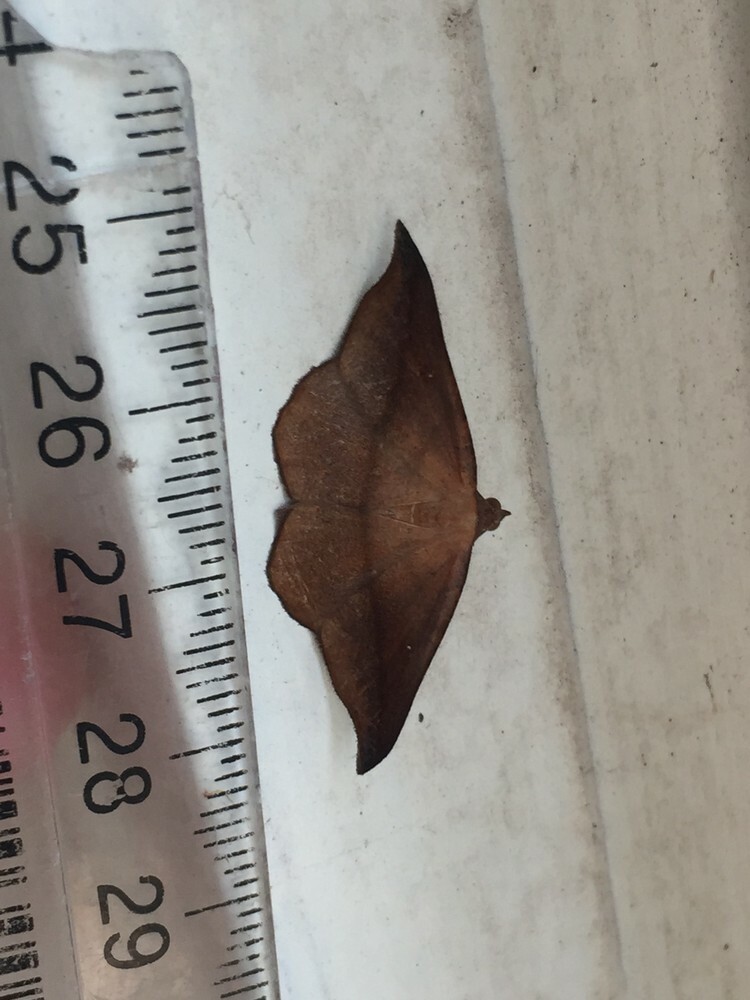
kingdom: Animalia
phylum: Arthropoda
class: Insecta
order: Lepidoptera
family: Geometridae
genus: Sarisa
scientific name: Sarisa muriferata
